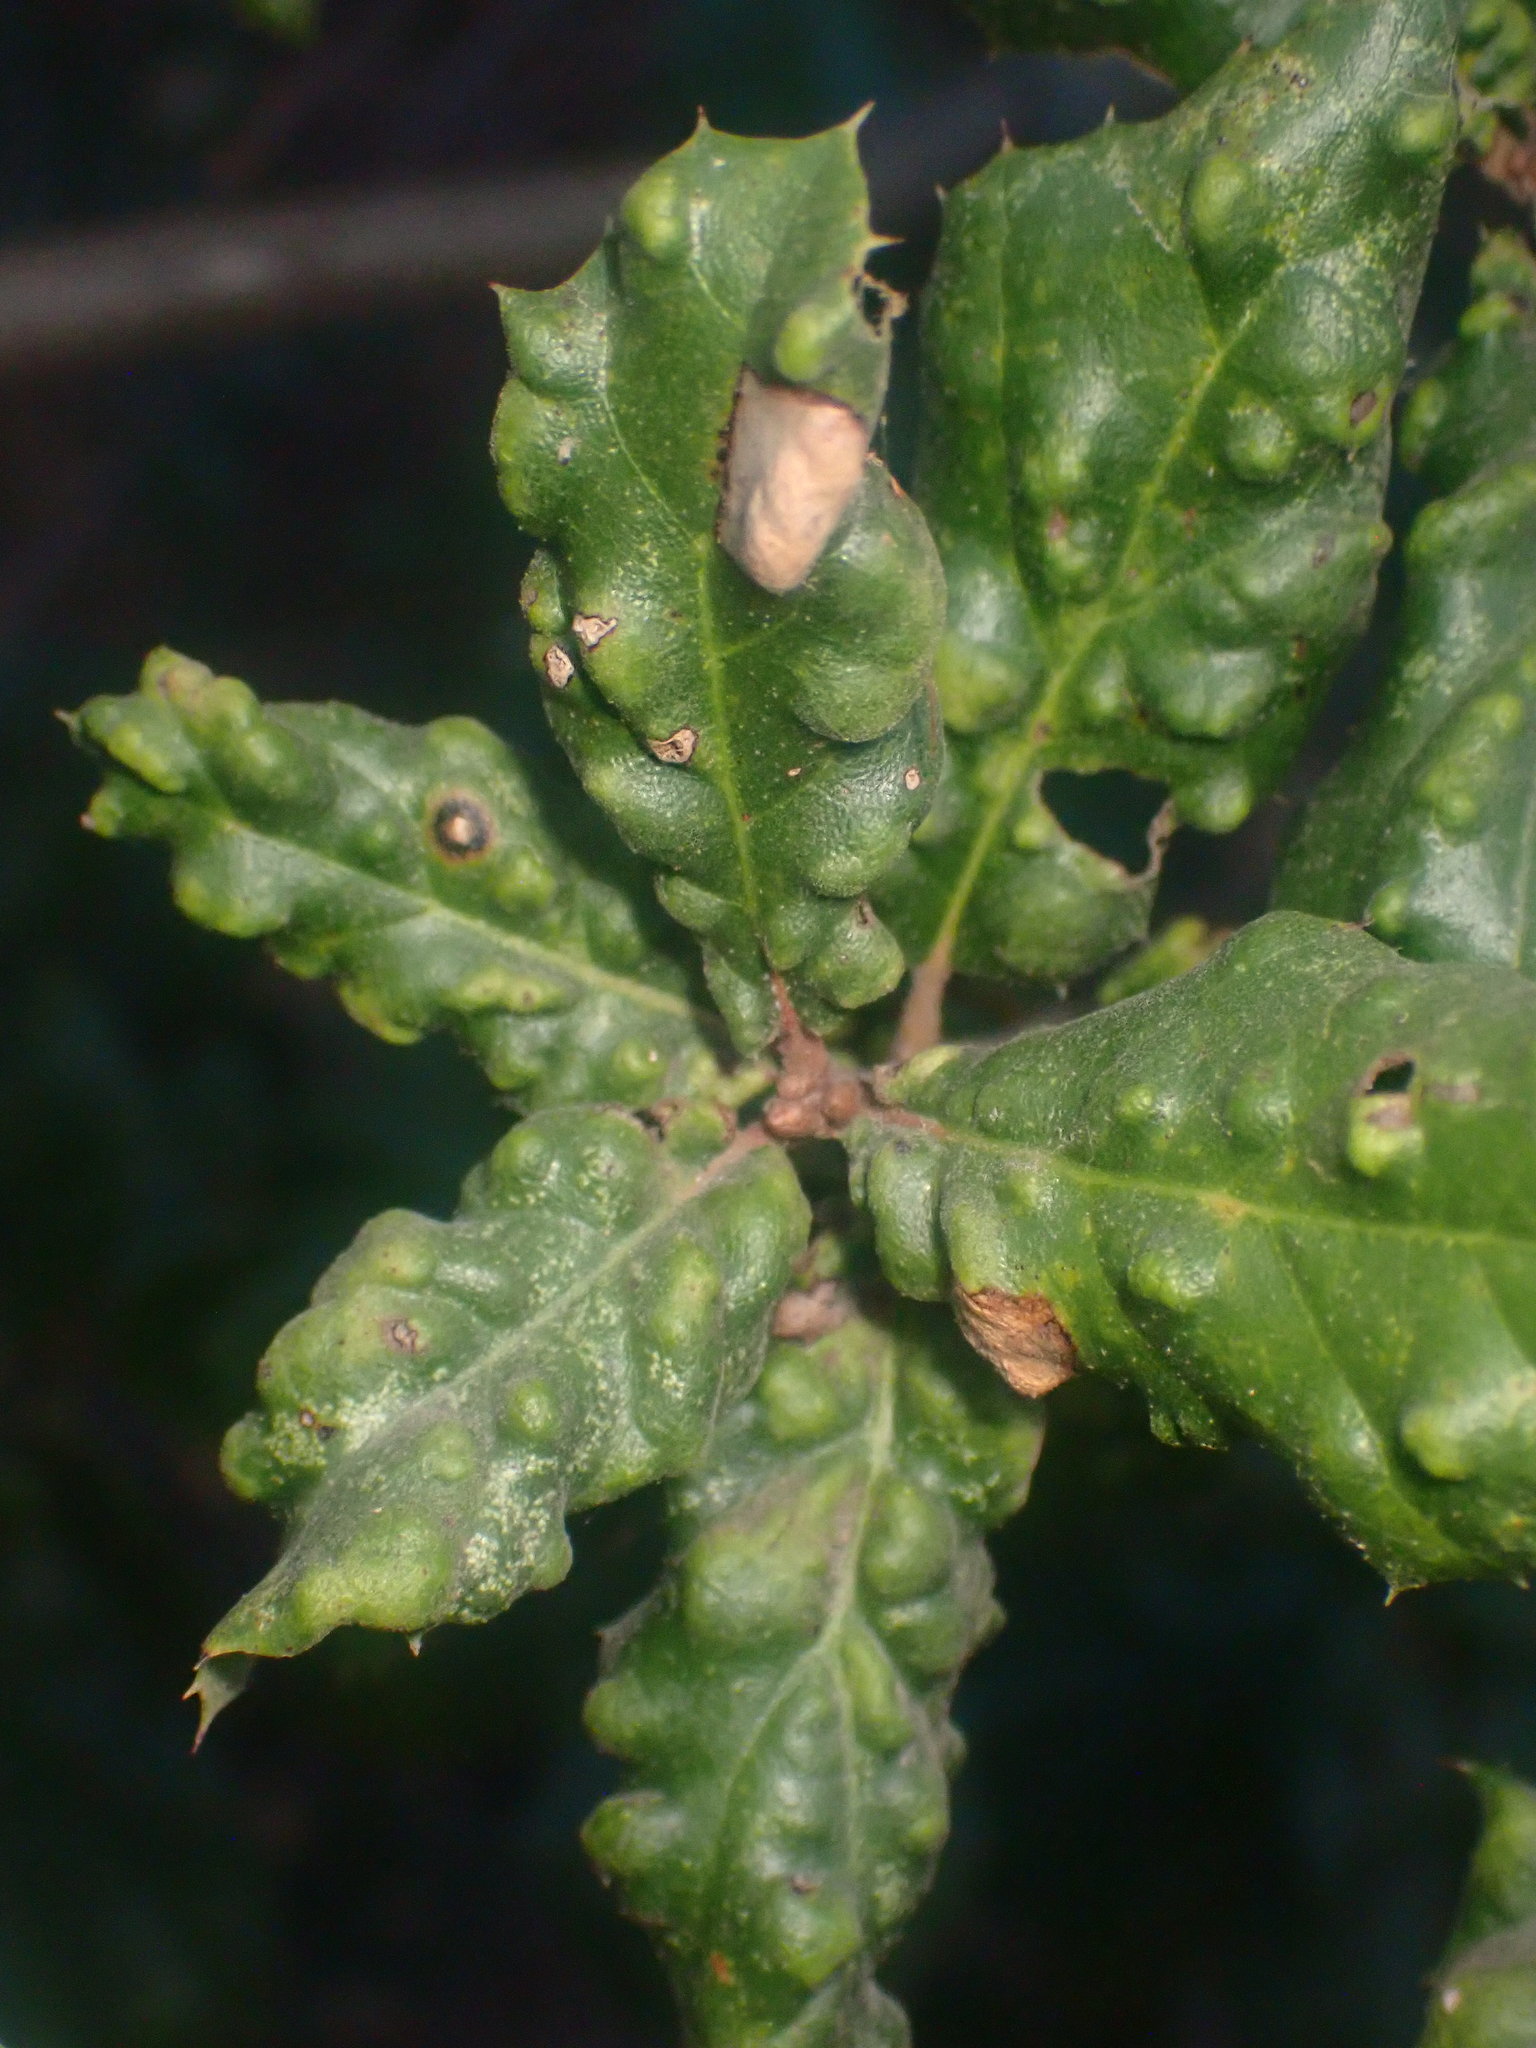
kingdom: Animalia
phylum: Arthropoda
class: Arachnida
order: Trombidiformes
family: Eriophyidae
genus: Aceria
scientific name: Aceria
